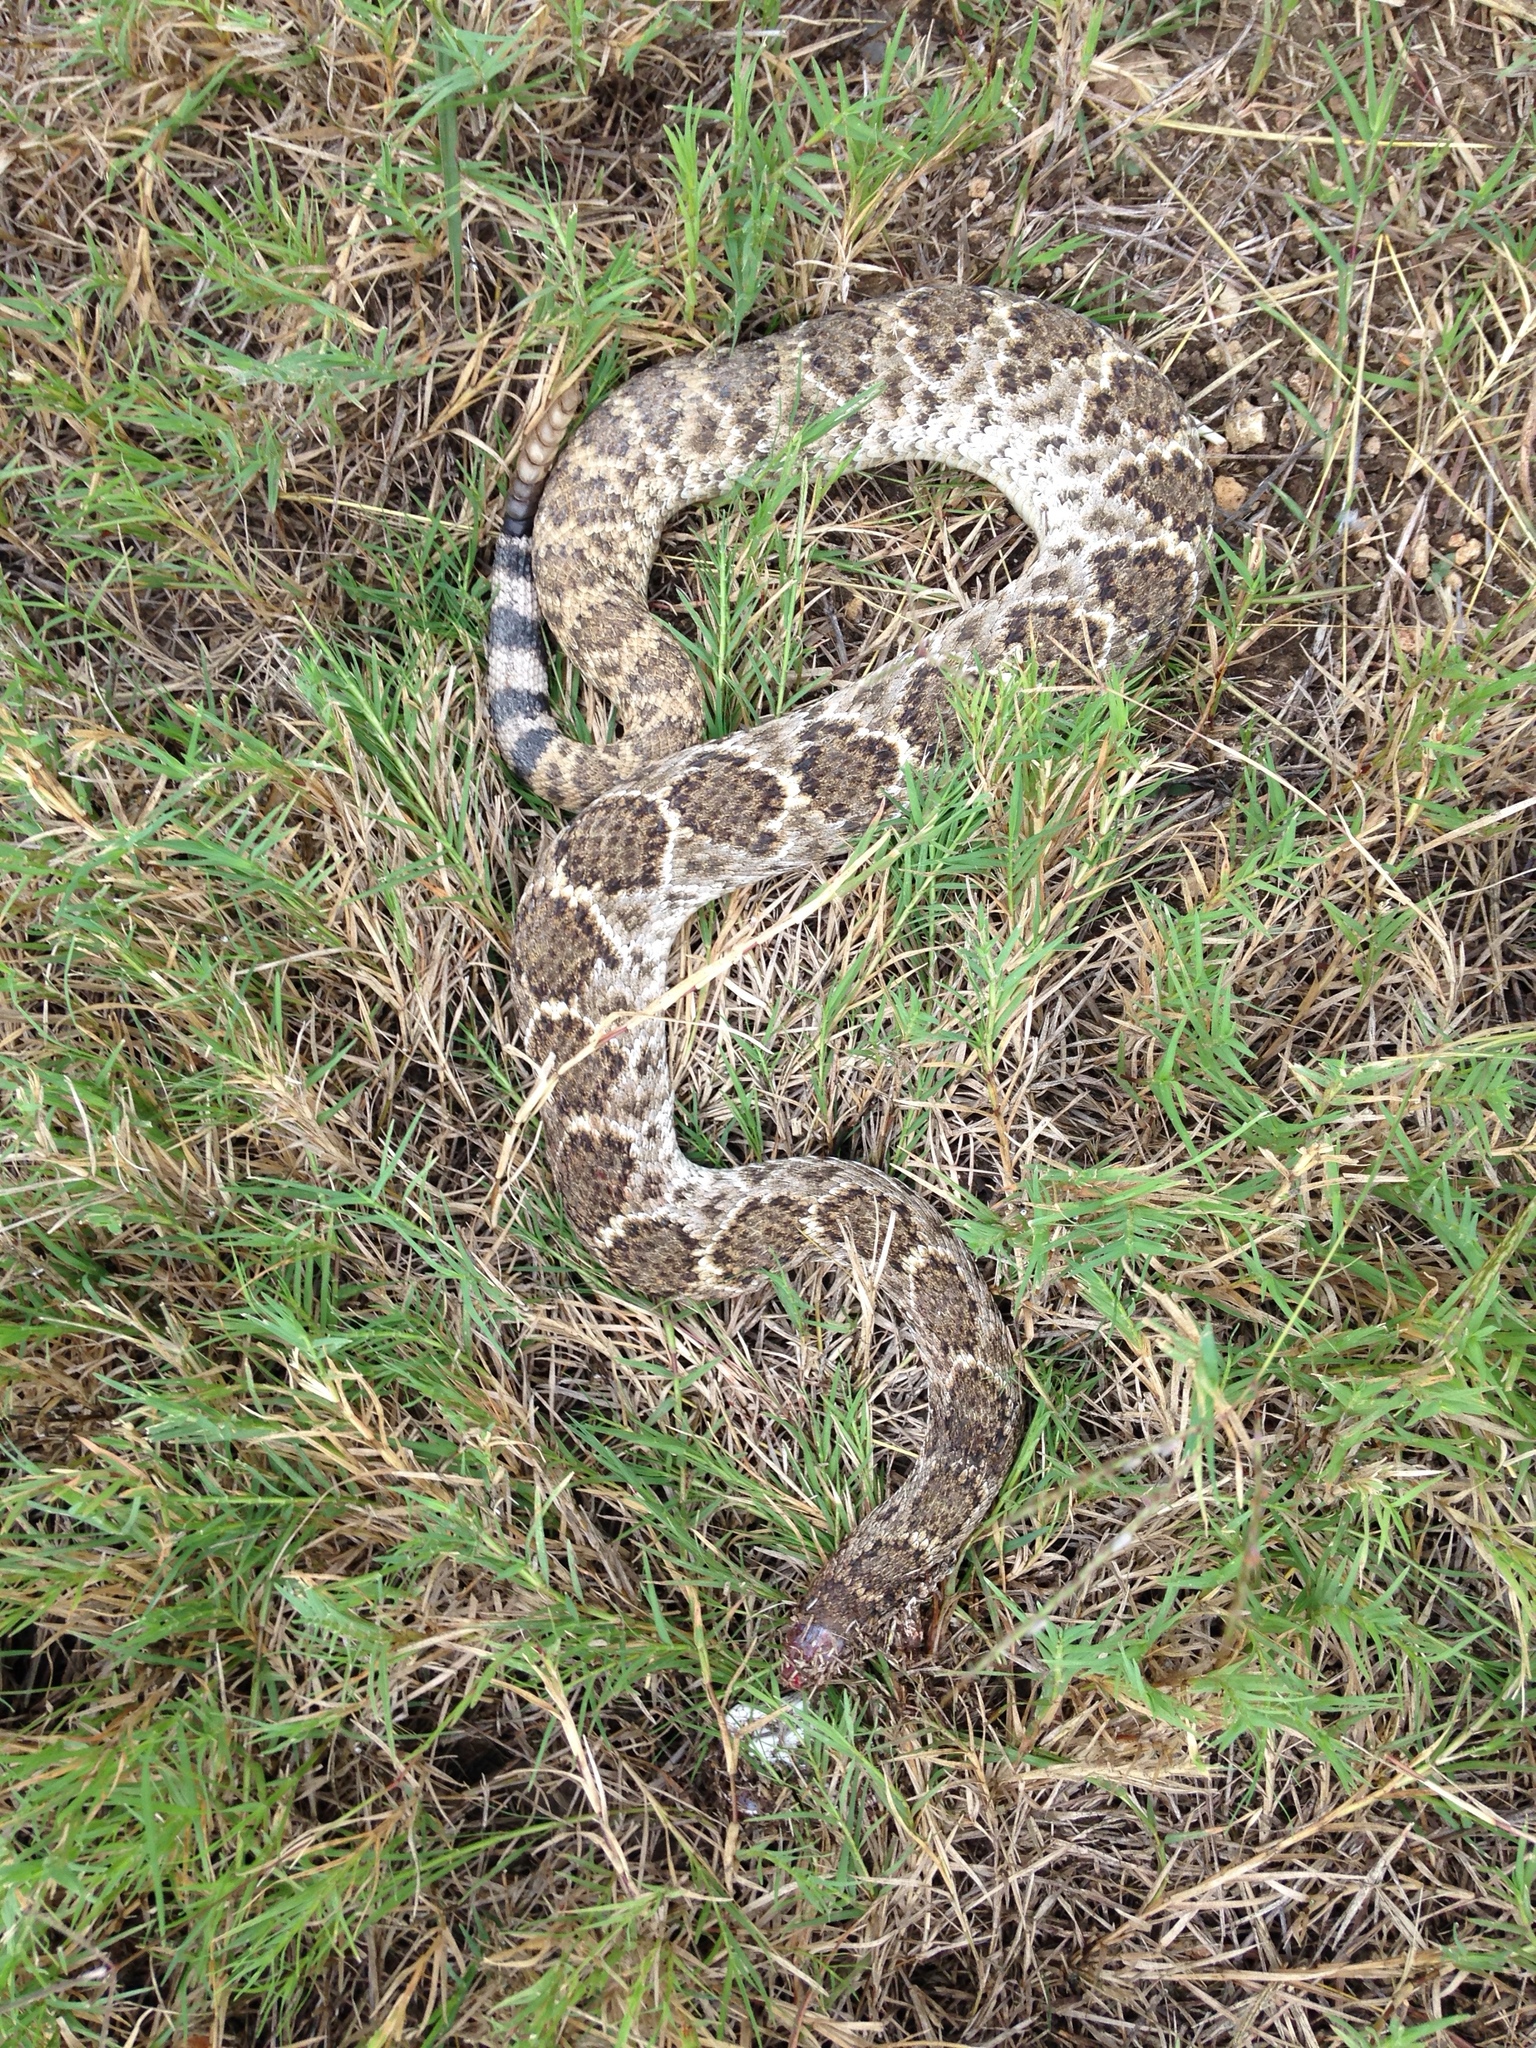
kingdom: Animalia
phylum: Chordata
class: Squamata
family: Viperidae
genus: Crotalus
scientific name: Crotalus atrox
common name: Western diamond-backed rattlesnake
